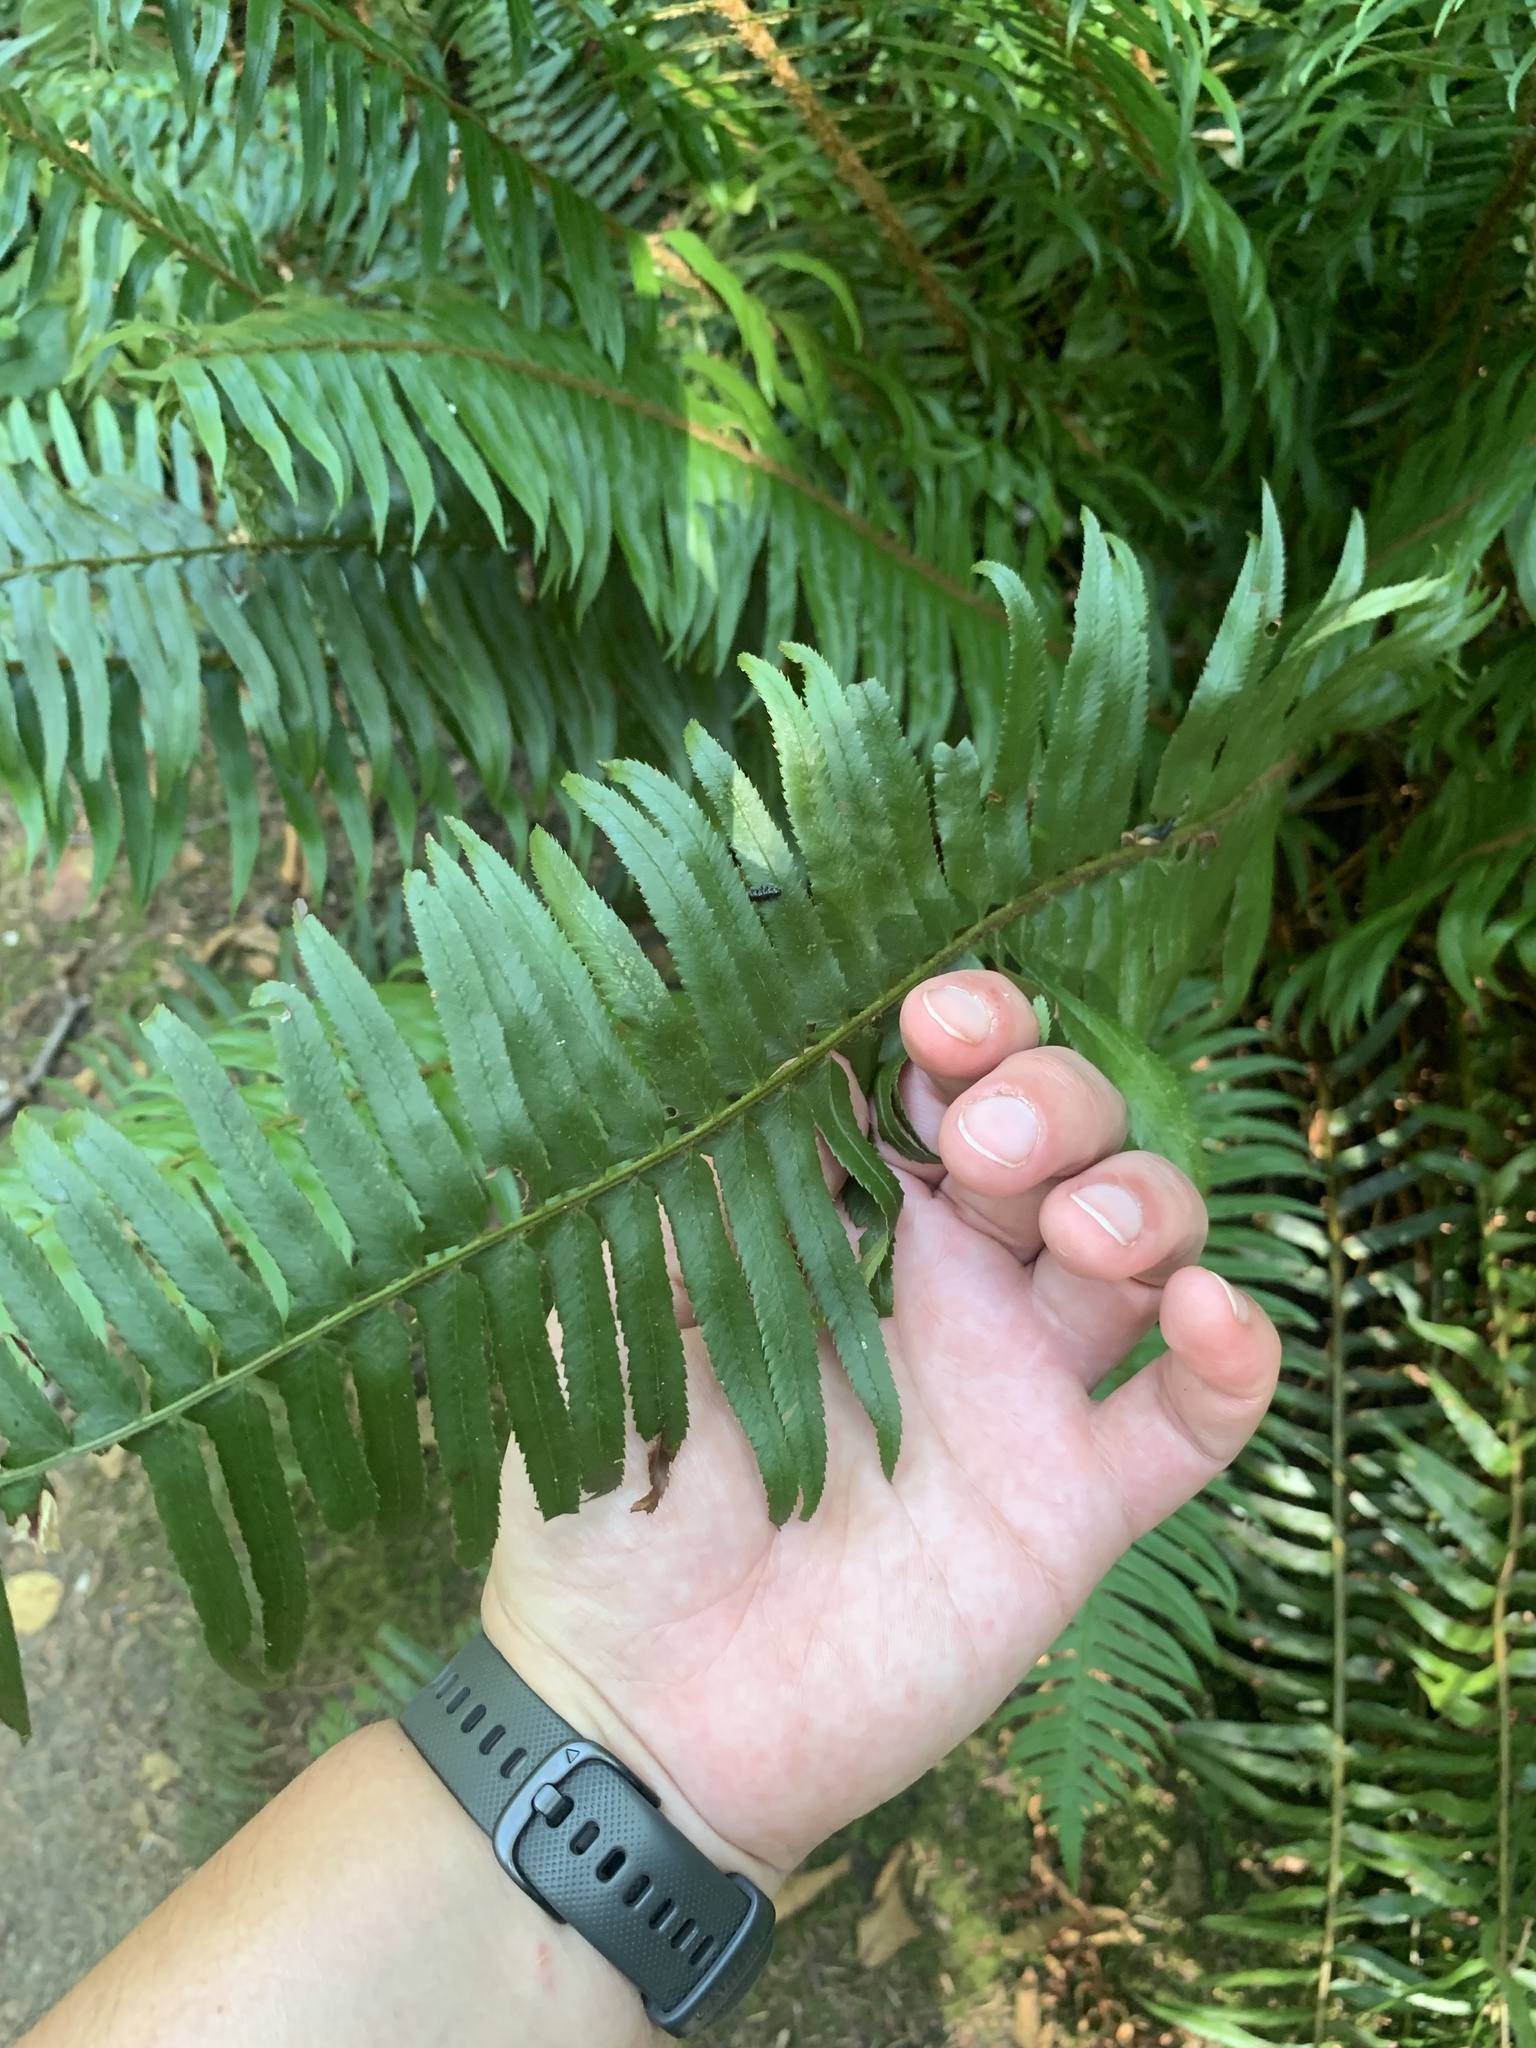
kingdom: Plantae
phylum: Tracheophyta
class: Polypodiopsida
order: Polypodiales
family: Dryopteridaceae
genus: Polystichum
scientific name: Polystichum munitum
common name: Western sword-fern
